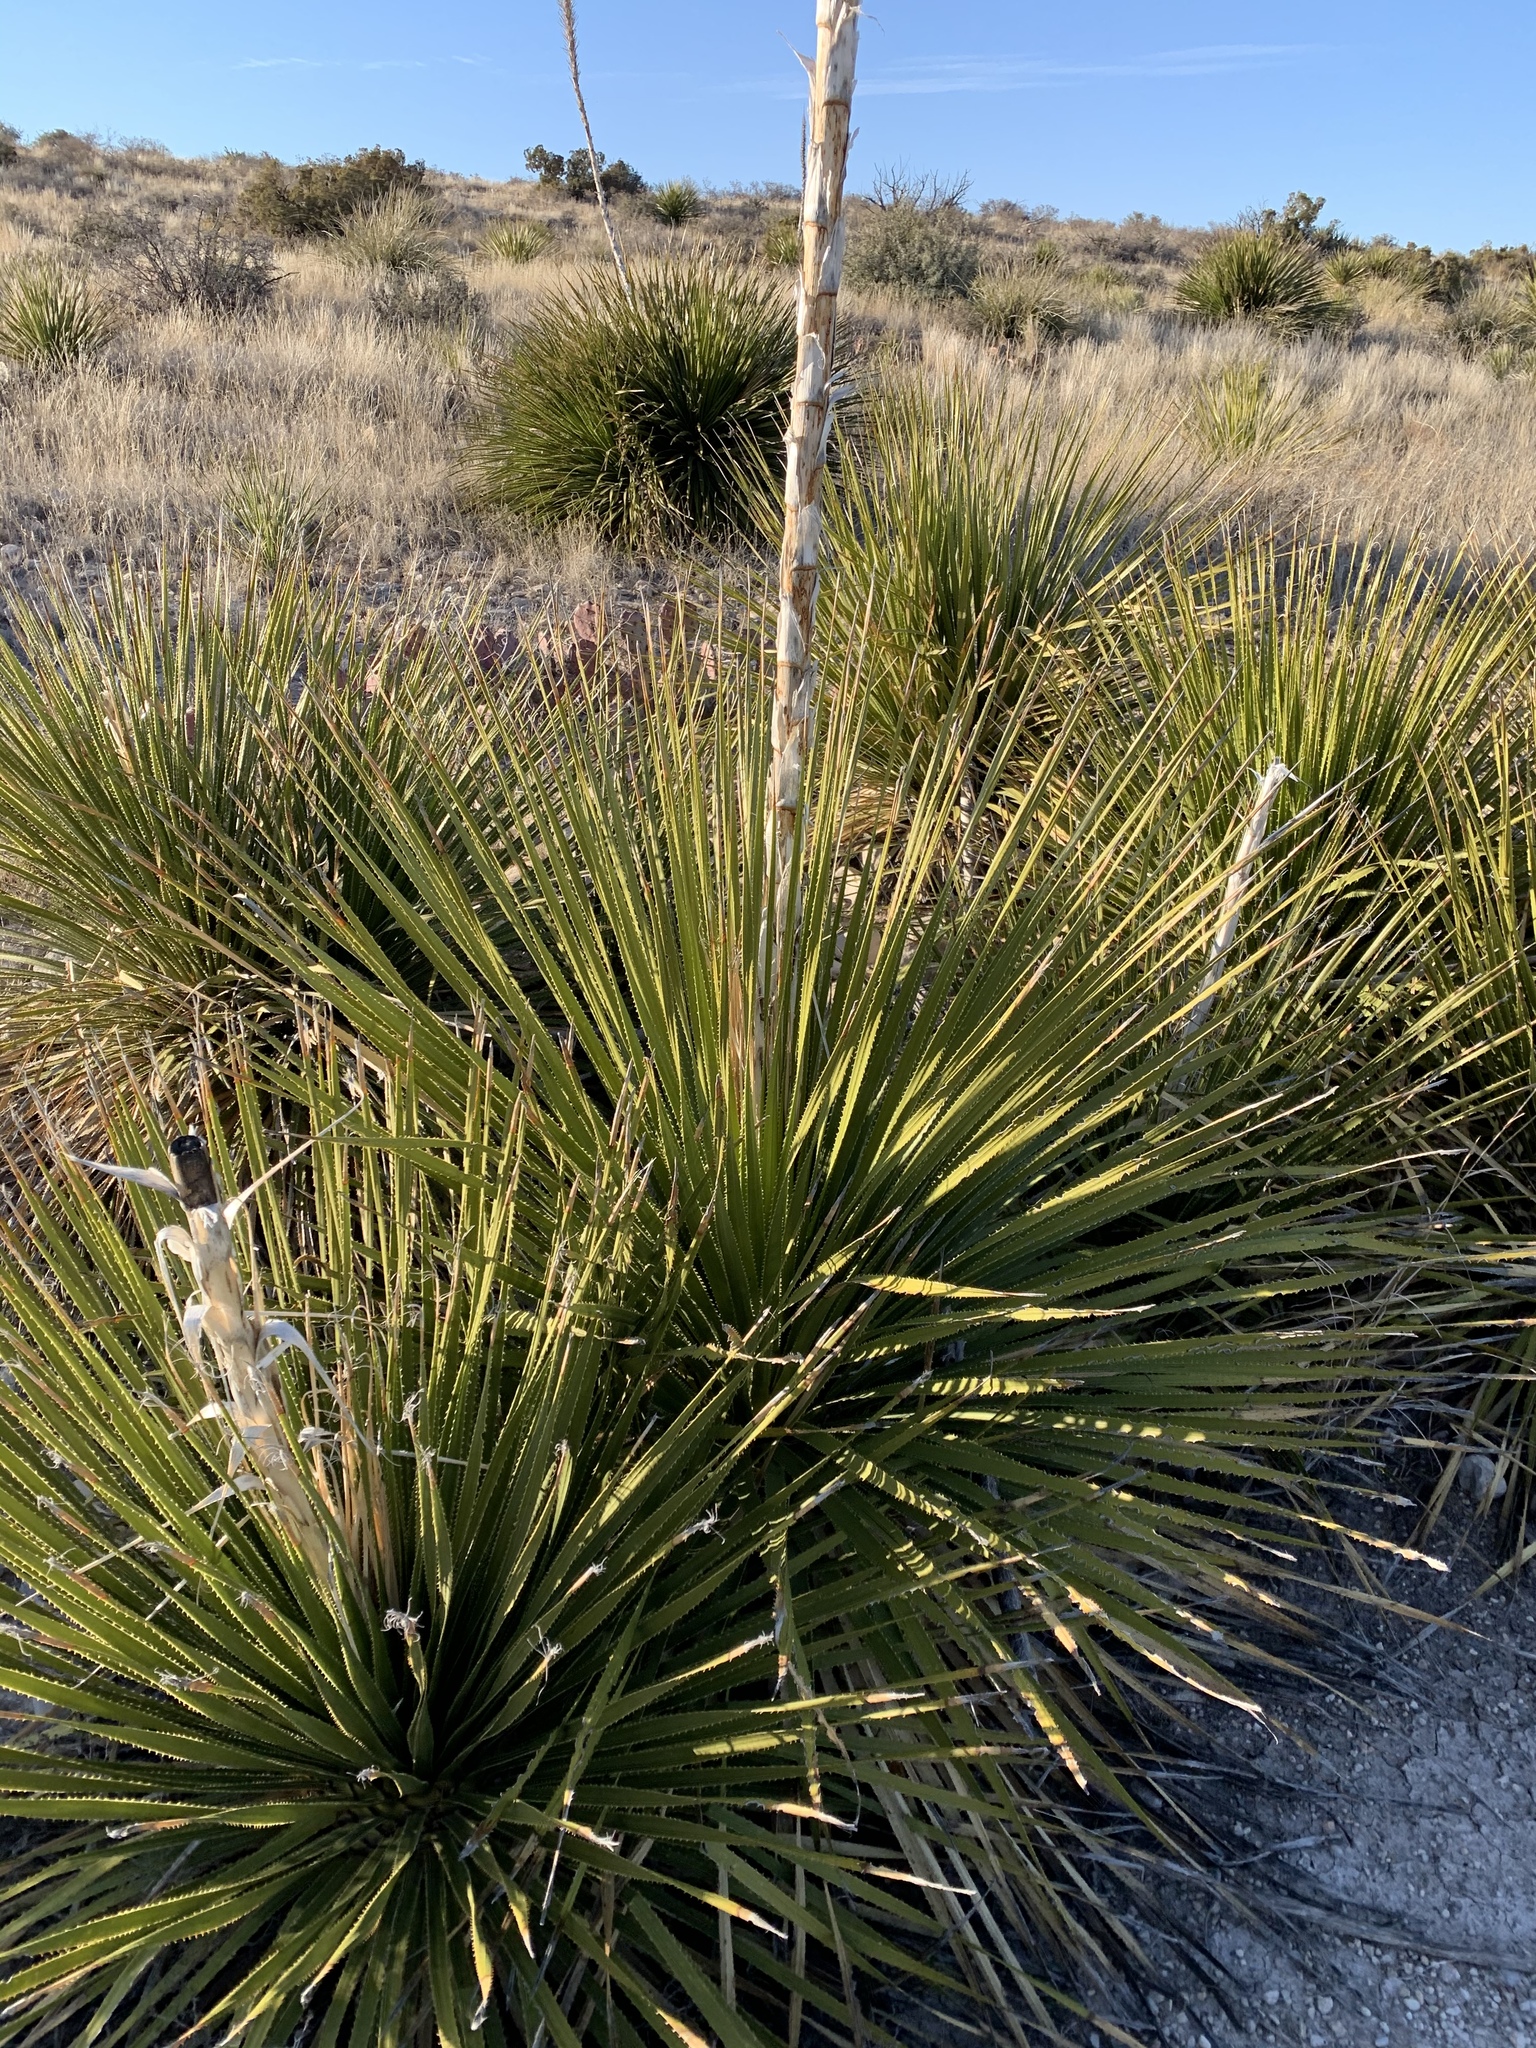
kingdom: Plantae
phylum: Tracheophyta
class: Liliopsida
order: Asparagales
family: Asparagaceae
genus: Dasylirion
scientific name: Dasylirion leiophyllum
